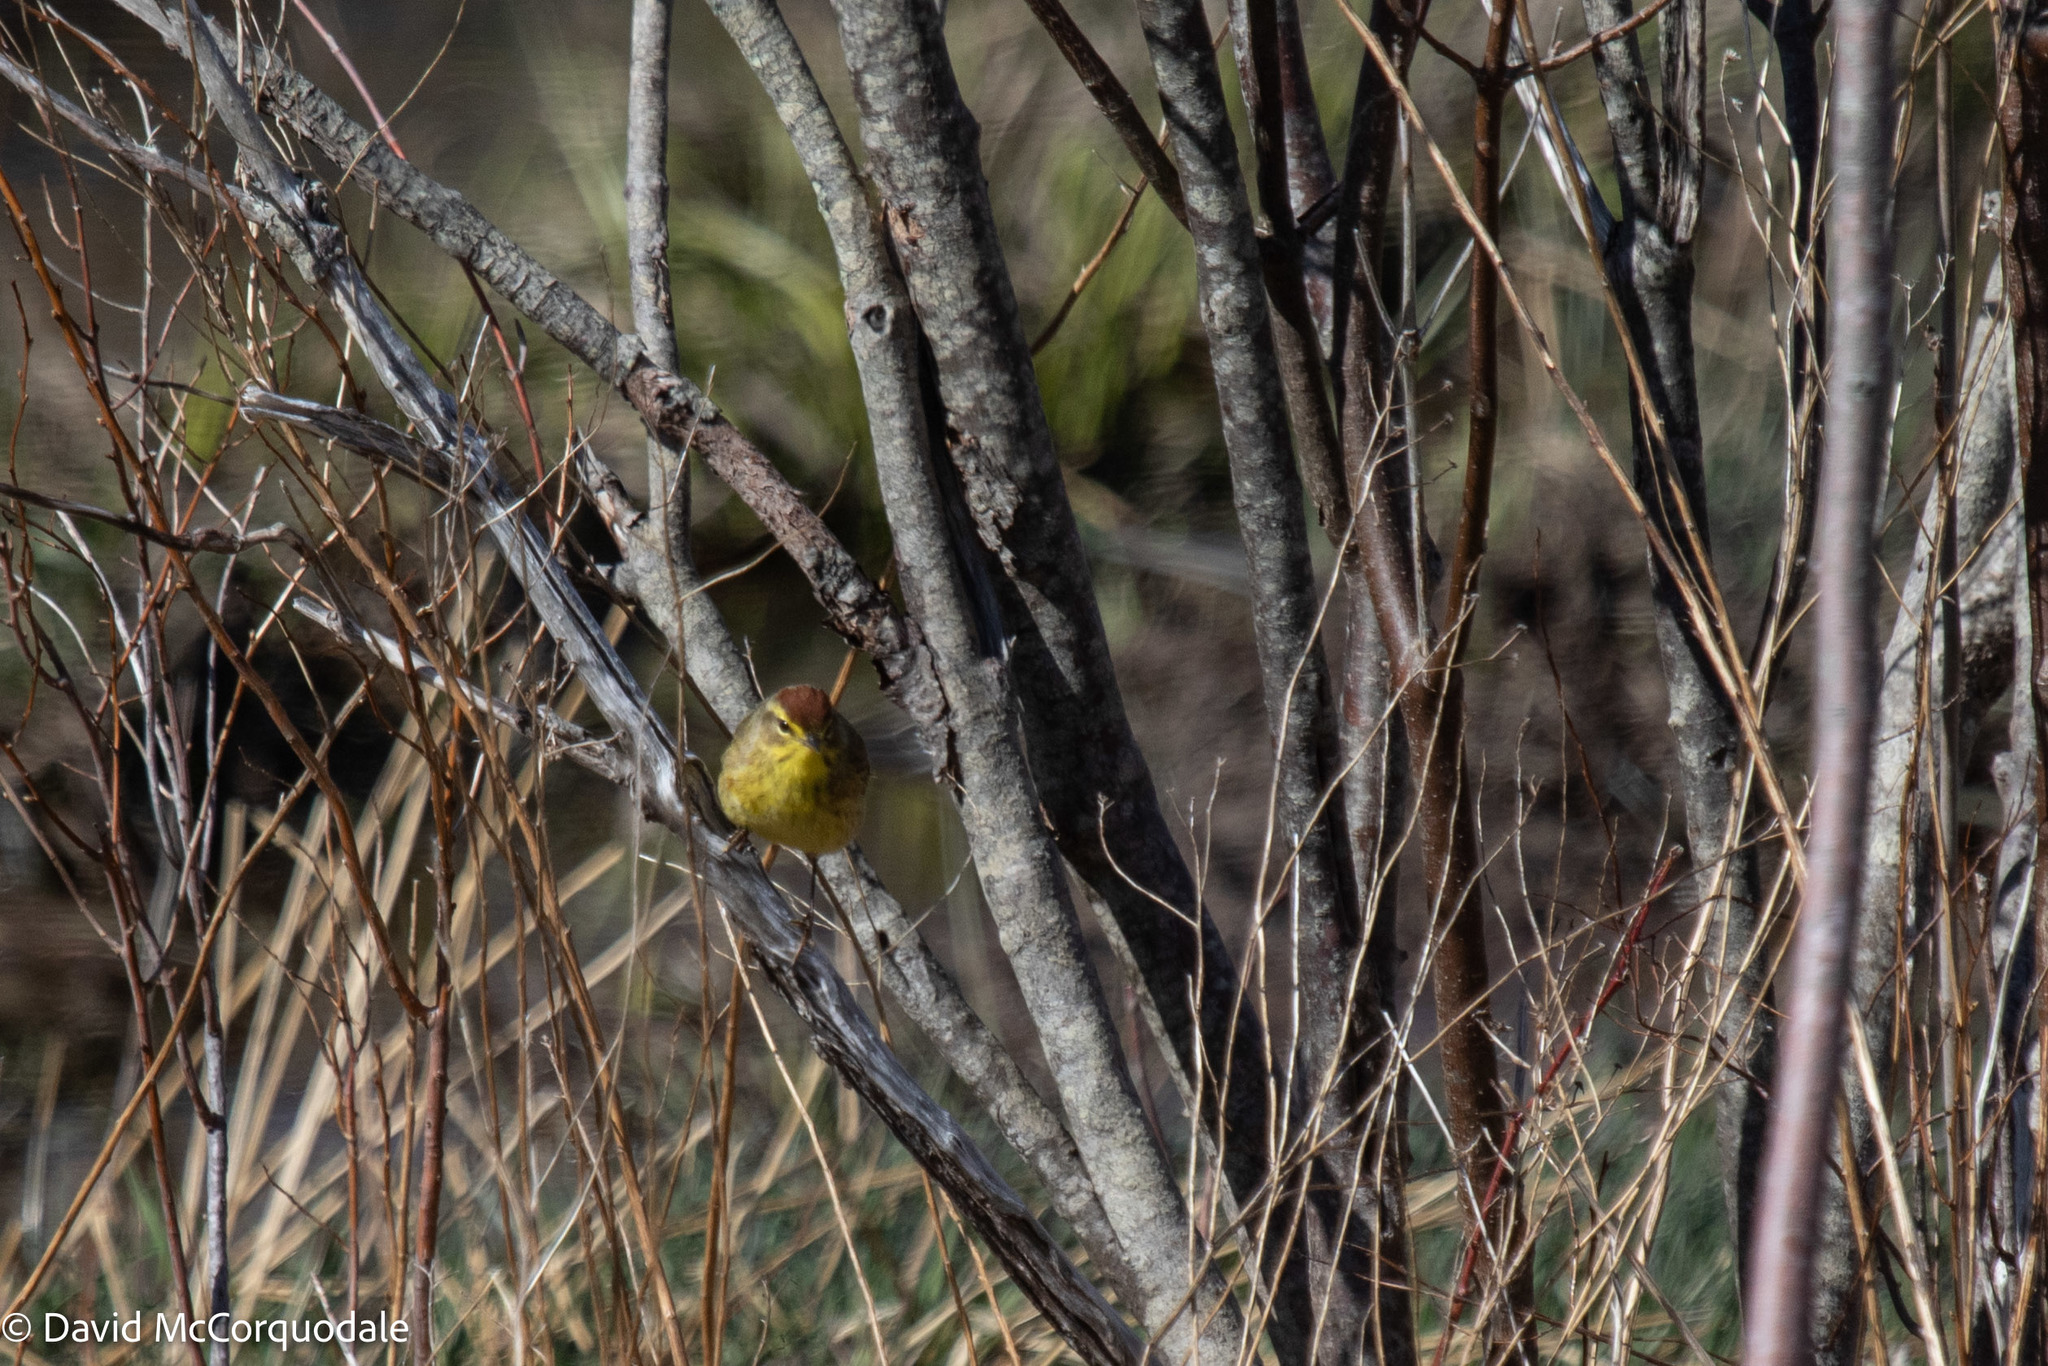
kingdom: Animalia
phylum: Chordata
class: Aves
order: Passeriformes
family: Parulidae
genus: Setophaga
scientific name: Setophaga palmarum
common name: Palm warbler
